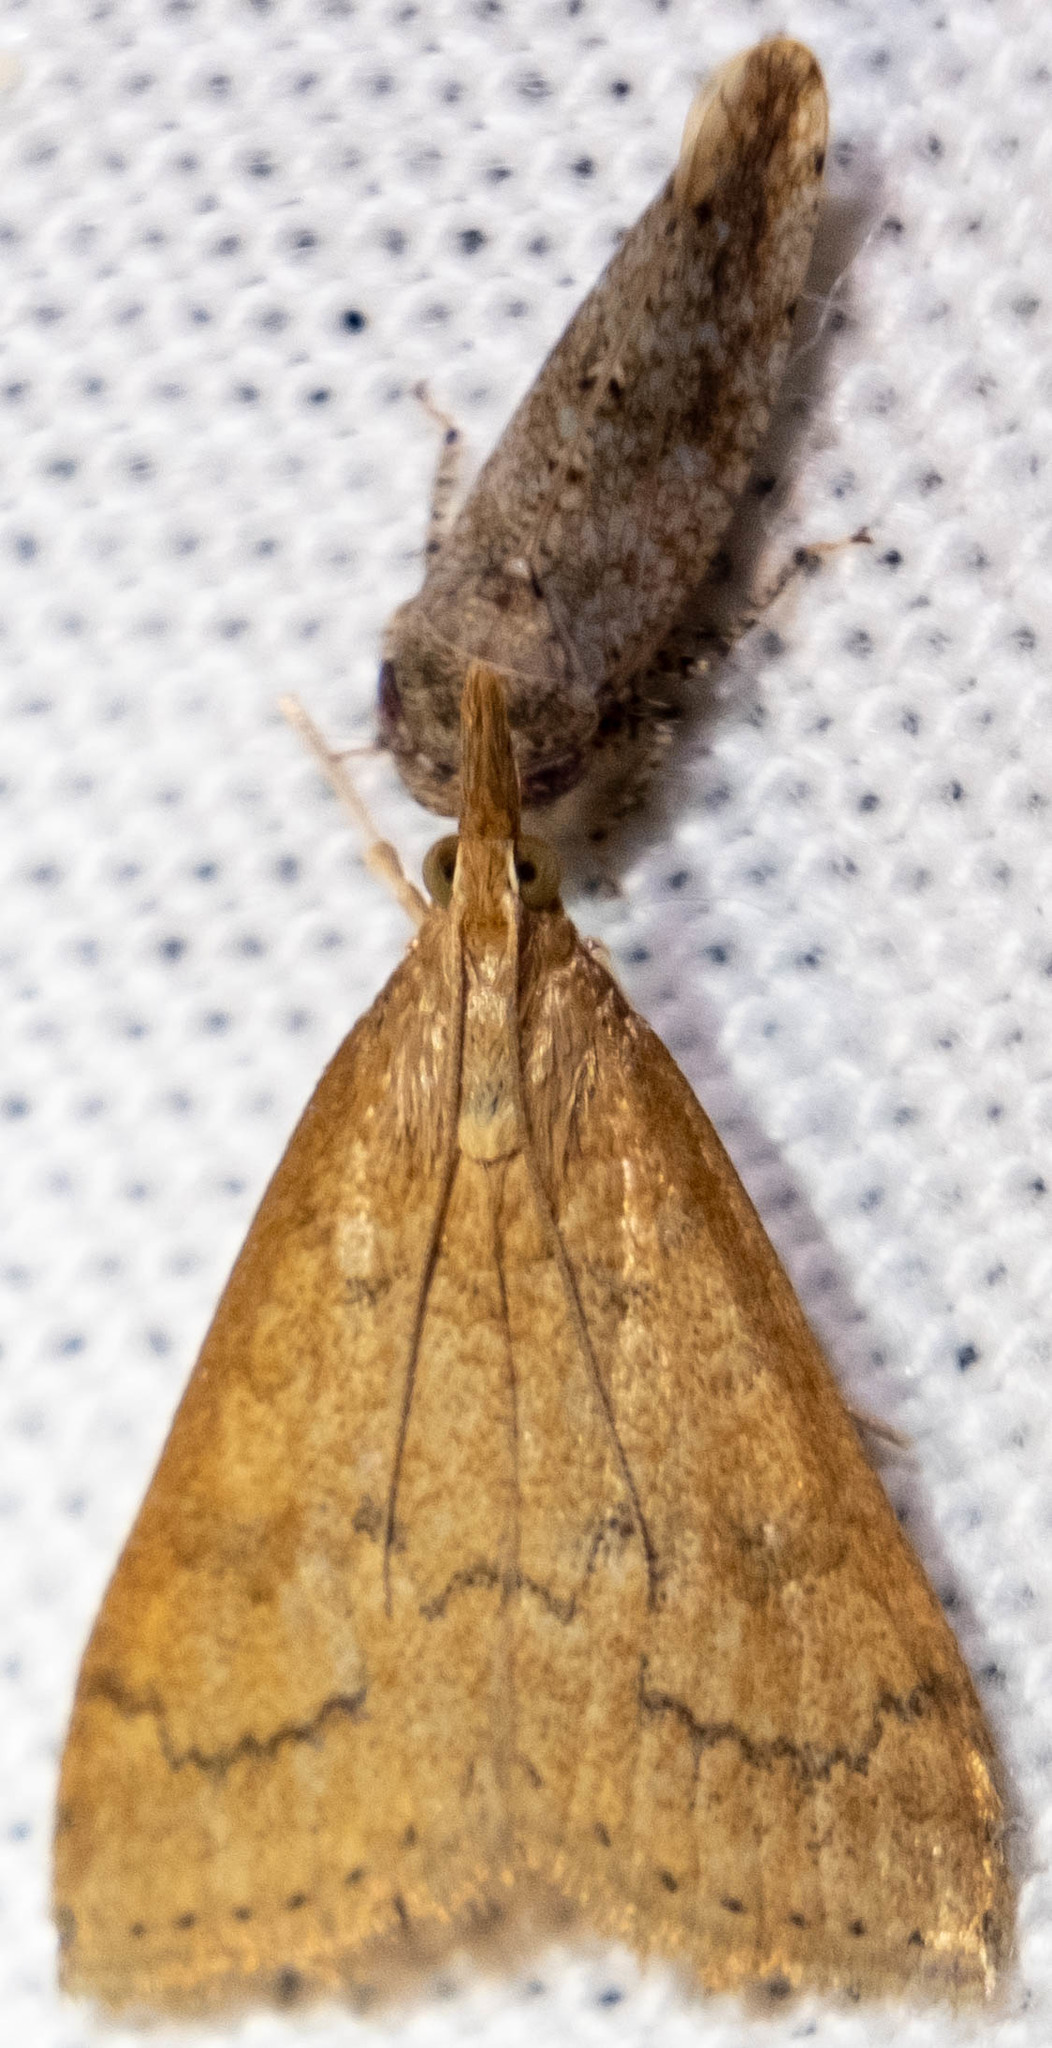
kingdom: Animalia
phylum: Arthropoda
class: Insecta
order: Lepidoptera
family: Crambidae
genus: Udea
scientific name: Udea rubigalis
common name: Celery leaftier moth
